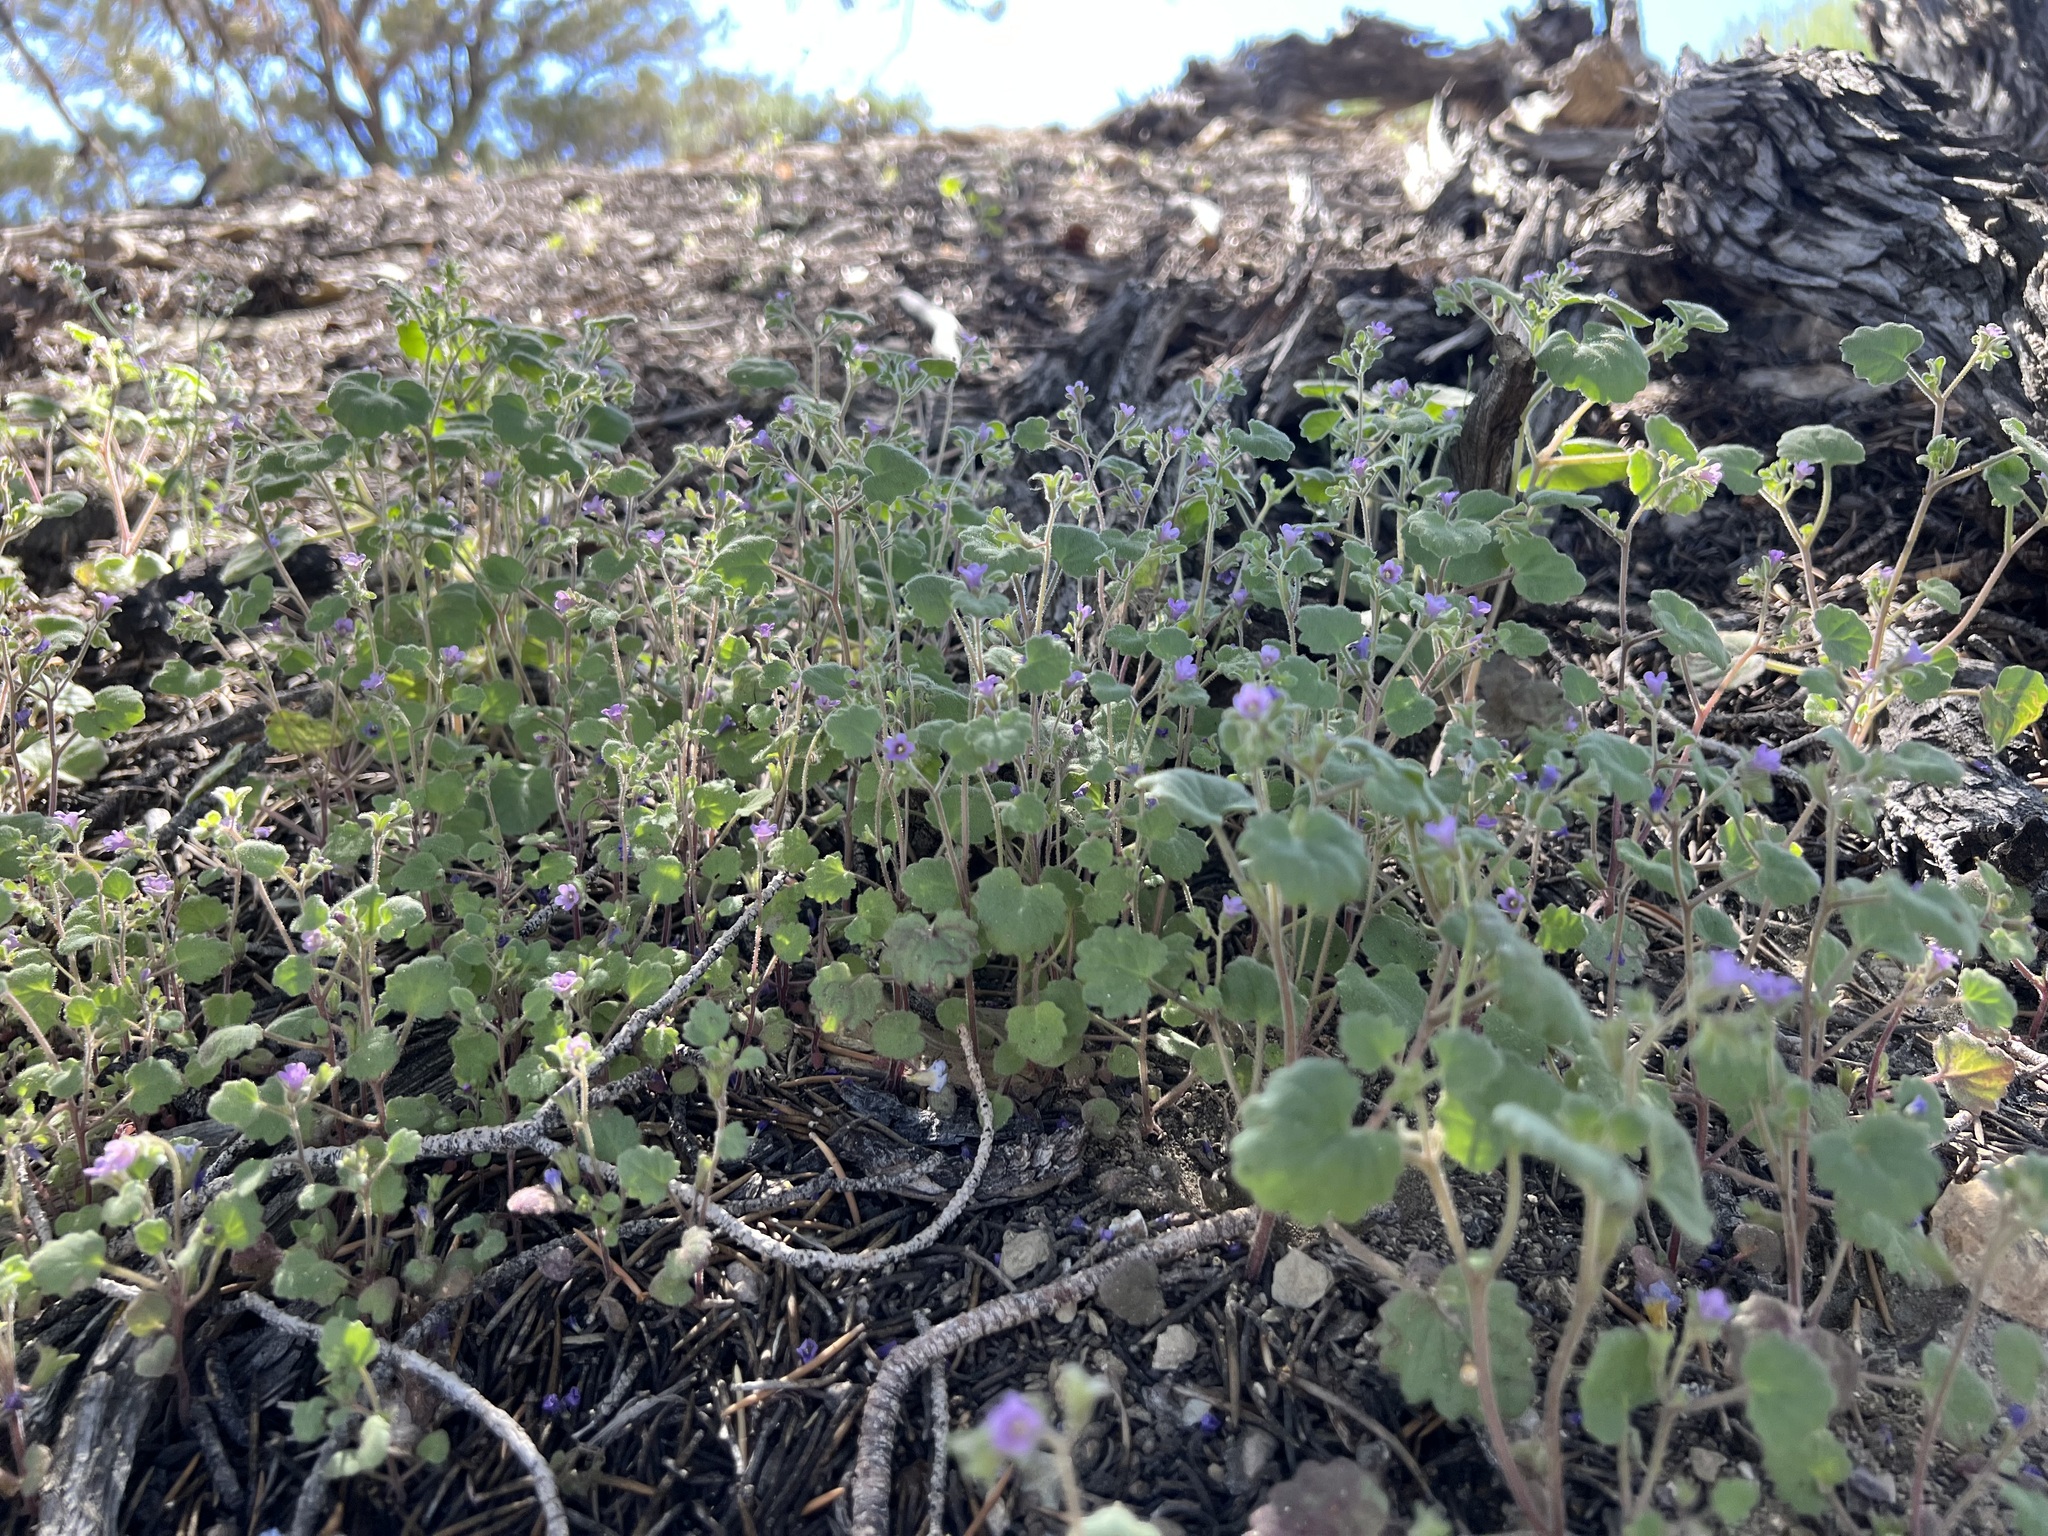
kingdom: Plantae
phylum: Tracheophyta
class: Magnoliopsida
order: Boraginales
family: Hydrophyllaceae
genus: Phacelia
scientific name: Phacelia peirsoniana
